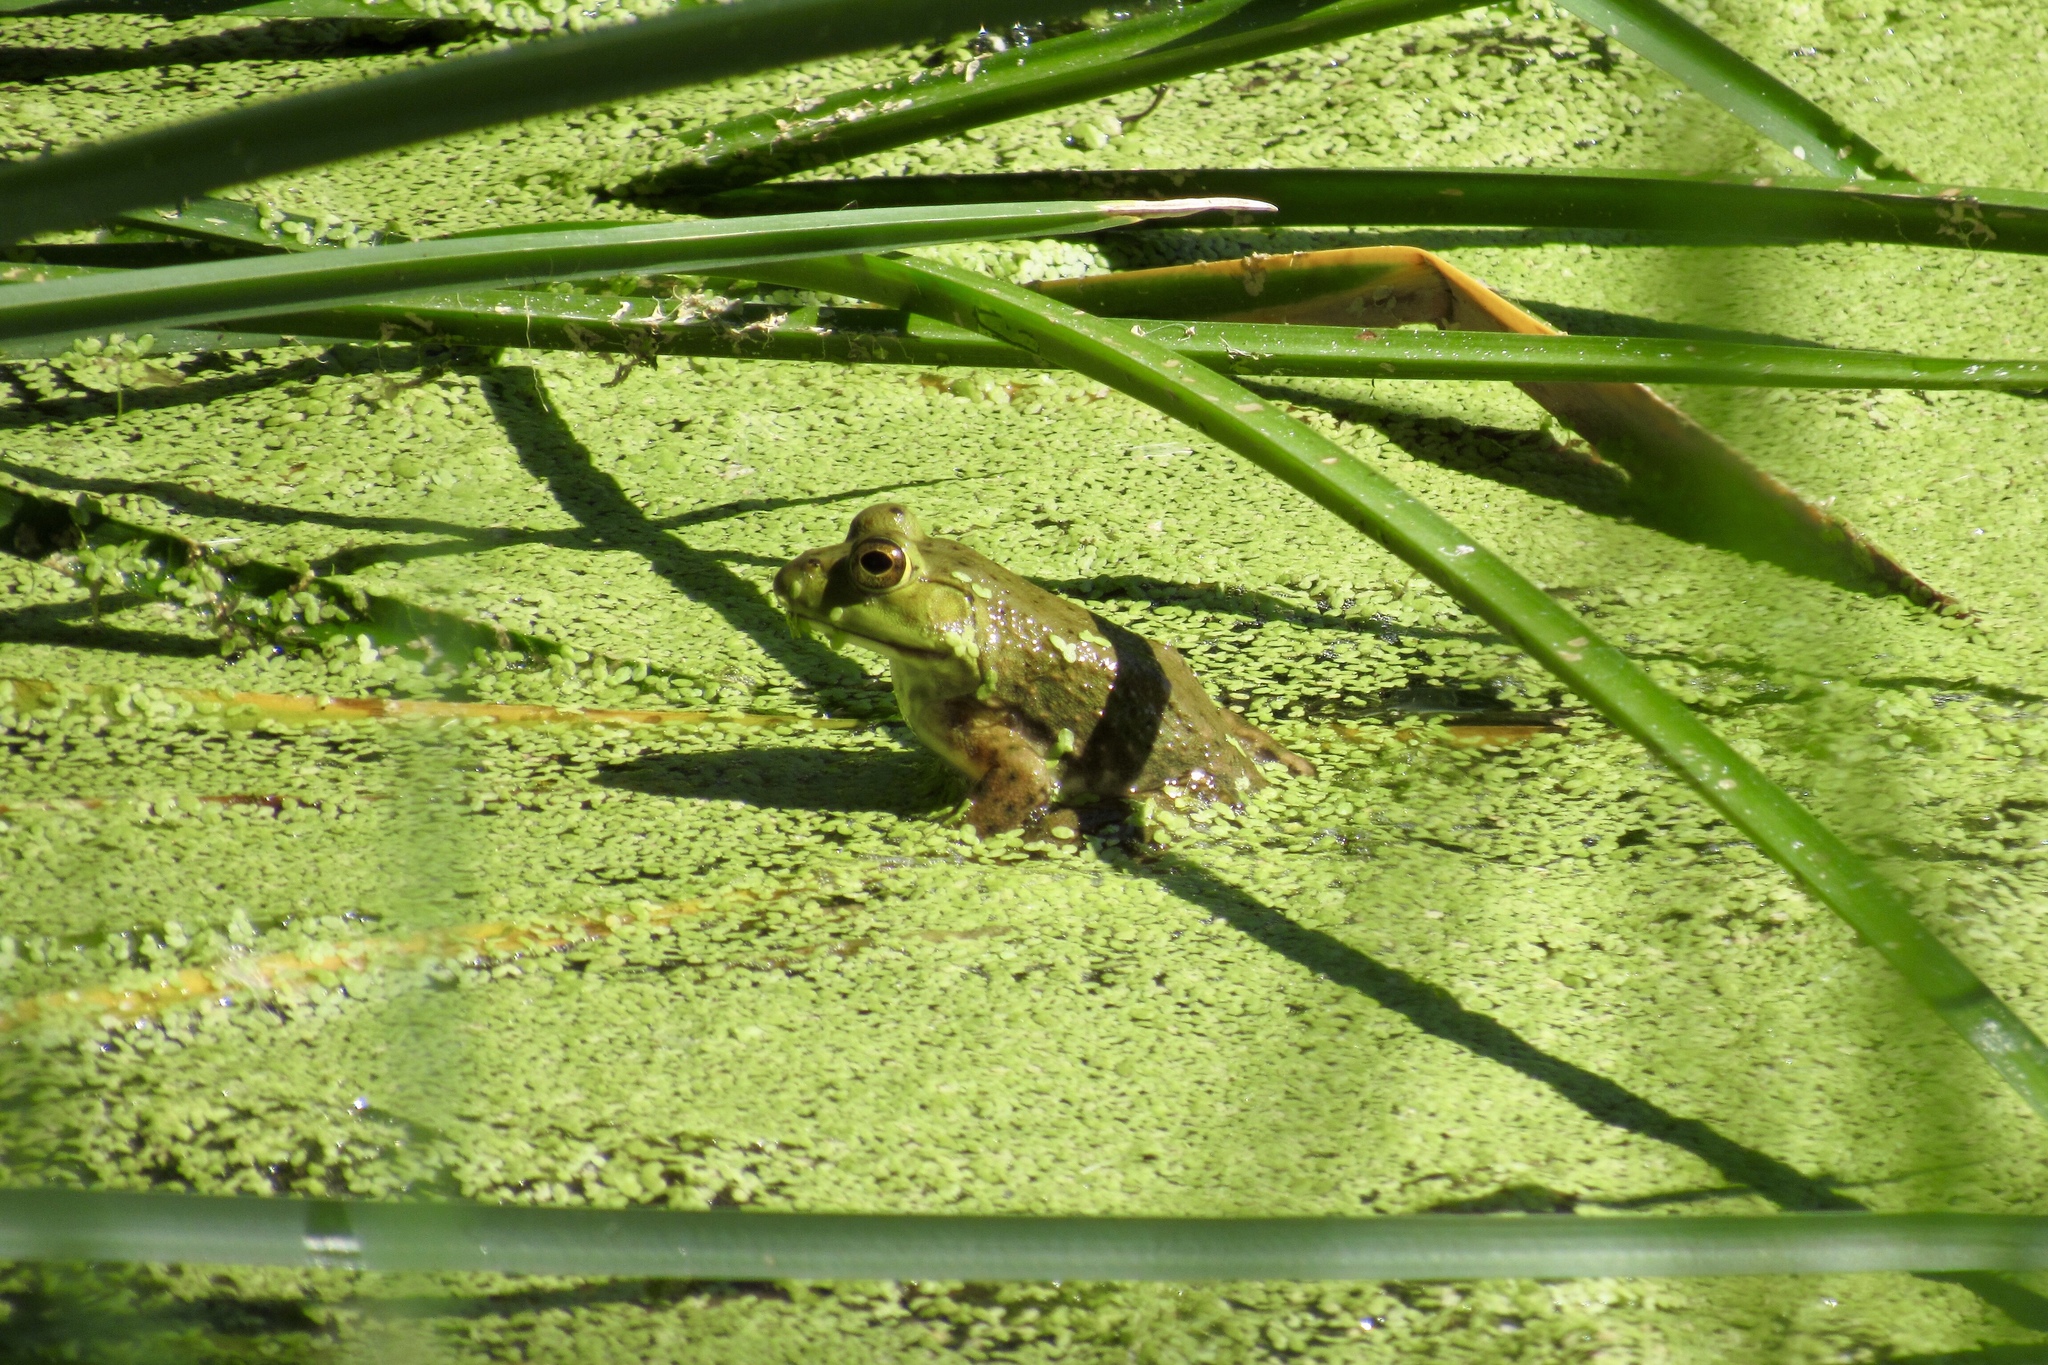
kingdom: Animalia
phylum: Chordata
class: Amphibia
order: Anura
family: Ranidae
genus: Lithobates
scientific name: Lithobates catesbeianus
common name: American bullfrog
